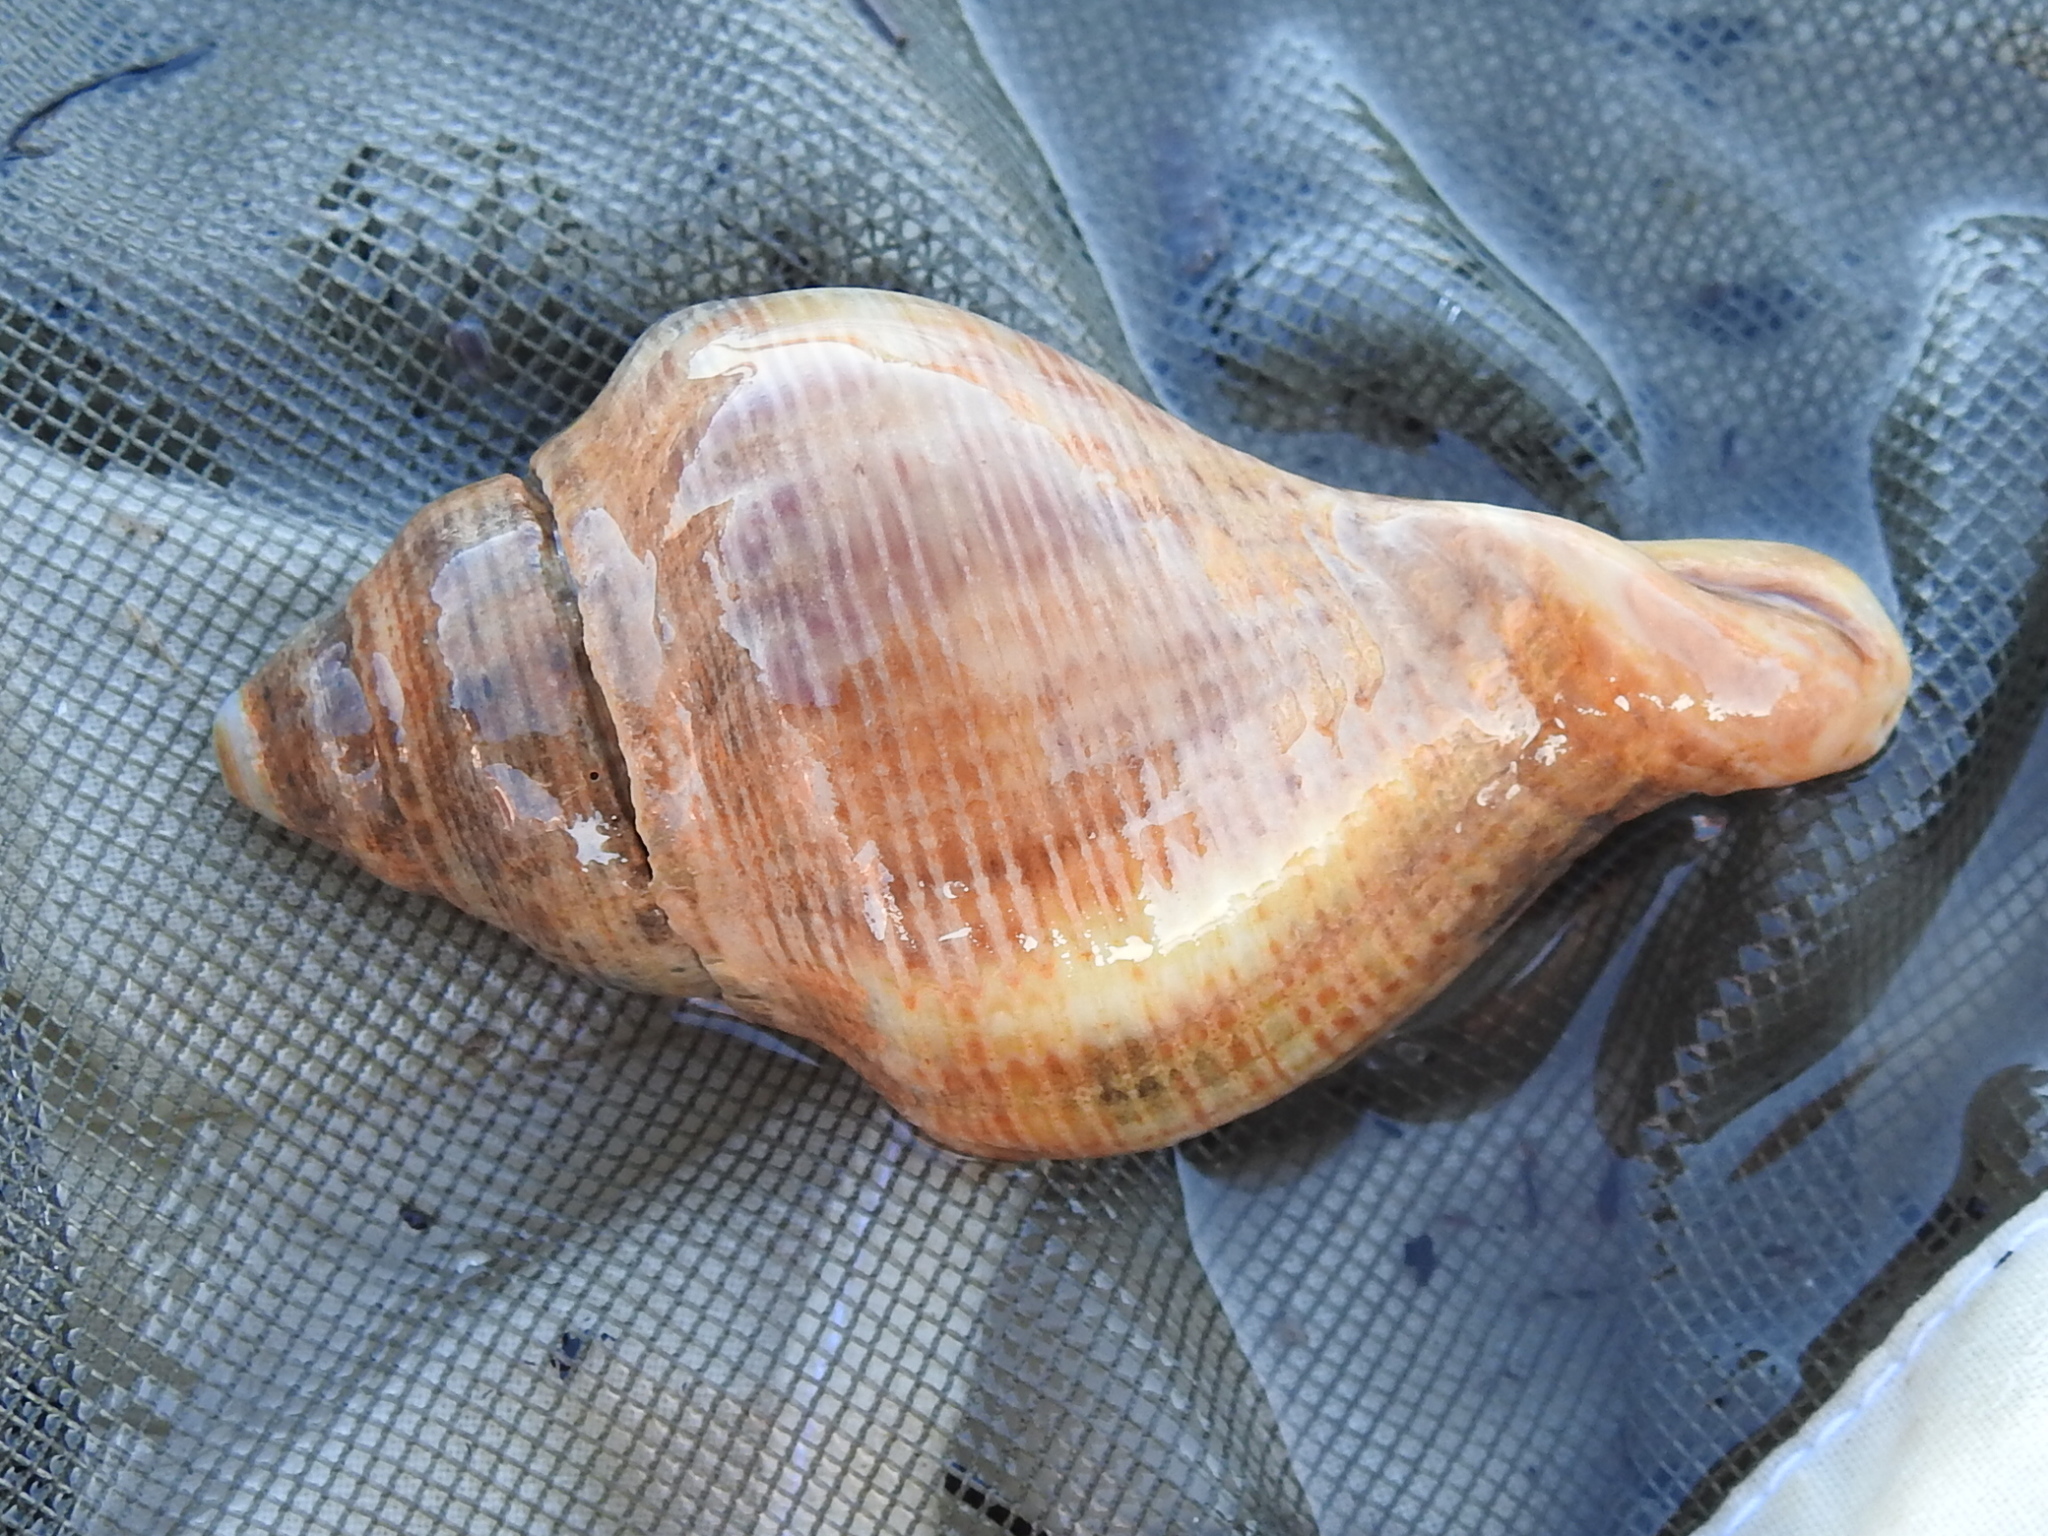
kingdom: Animalia
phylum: Mollusca
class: Gastropoda
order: Neogastropoda
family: Muricidae
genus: Stramonita
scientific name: Stramonita canaliculata
